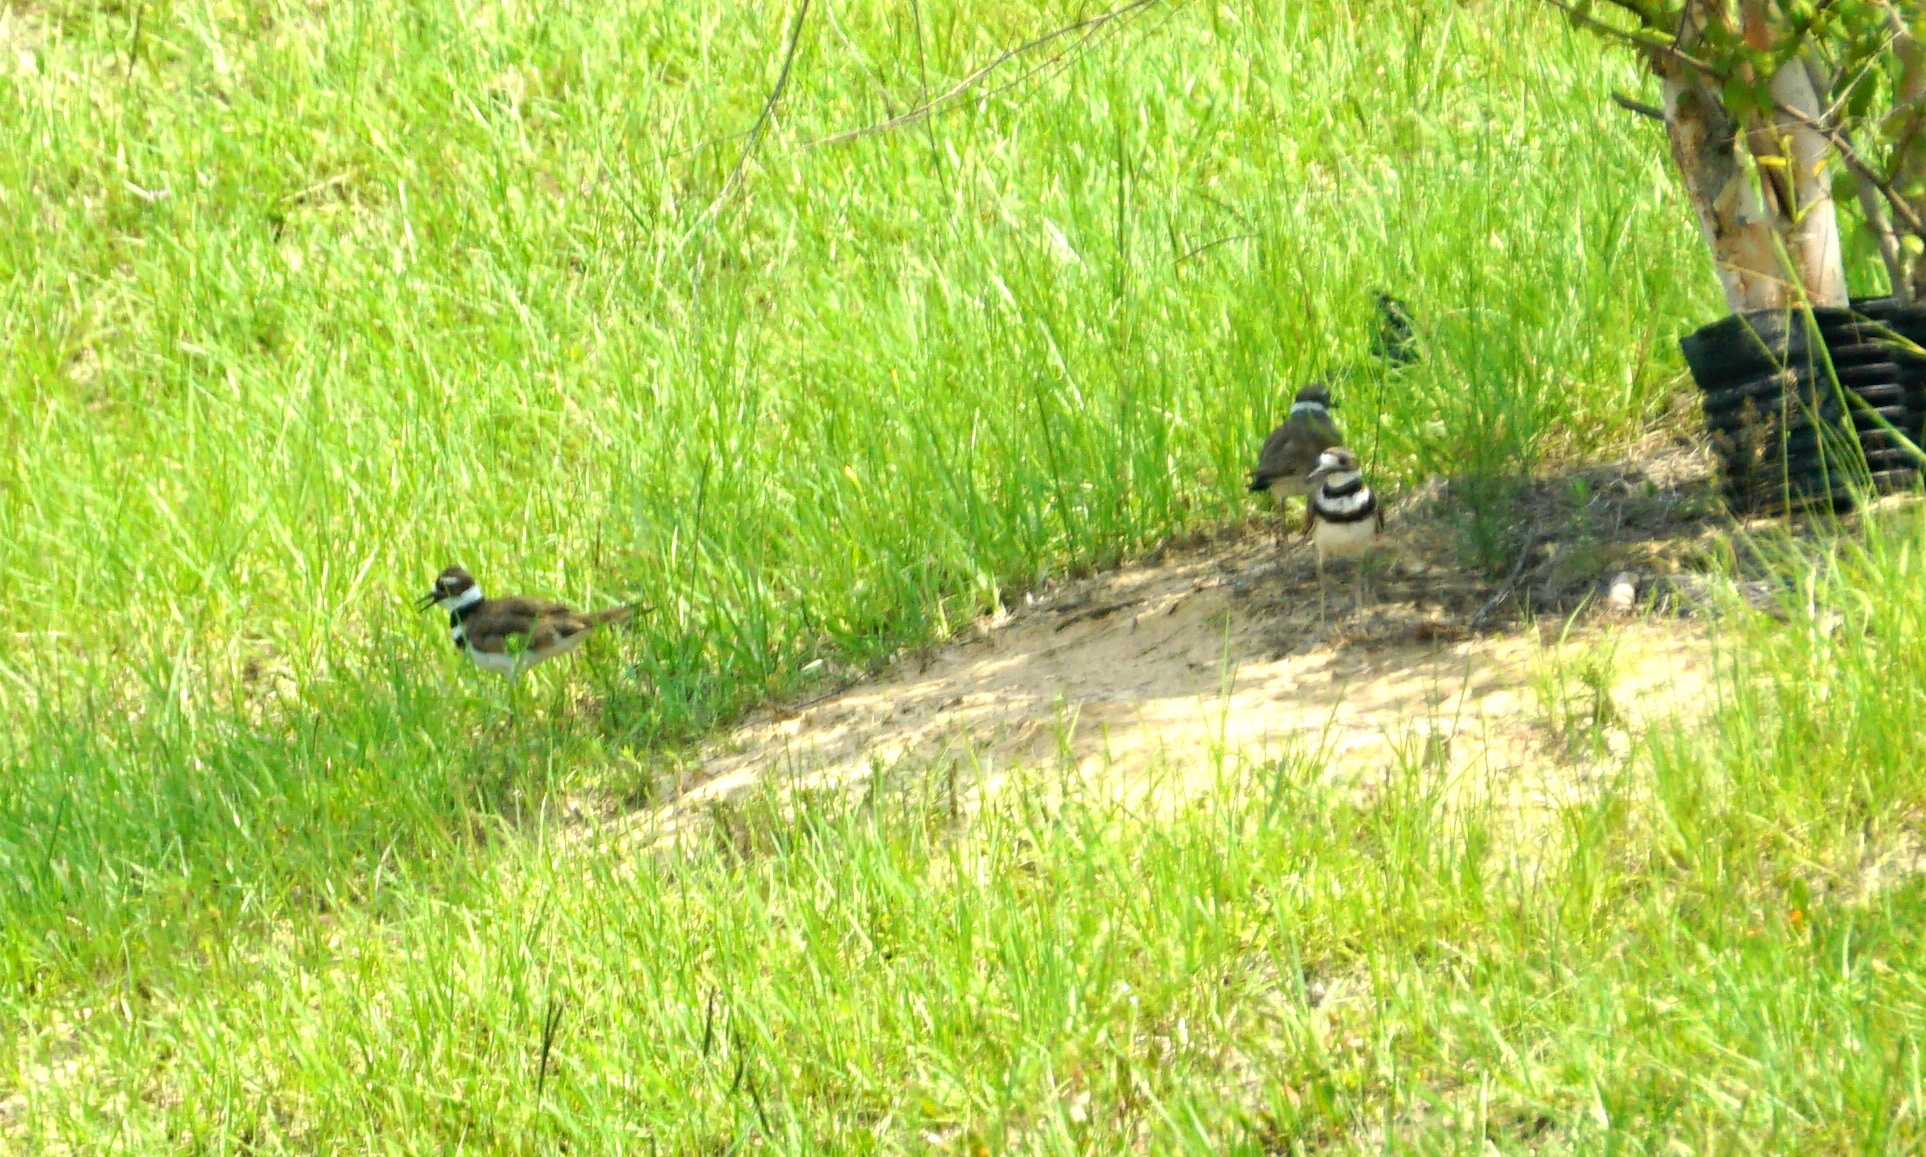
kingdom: Animalia
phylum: Chordata
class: Aves
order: Charadriiformes
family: Charadriidae
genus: Charadrius
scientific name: Charadrius vociferus
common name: Killdeer
